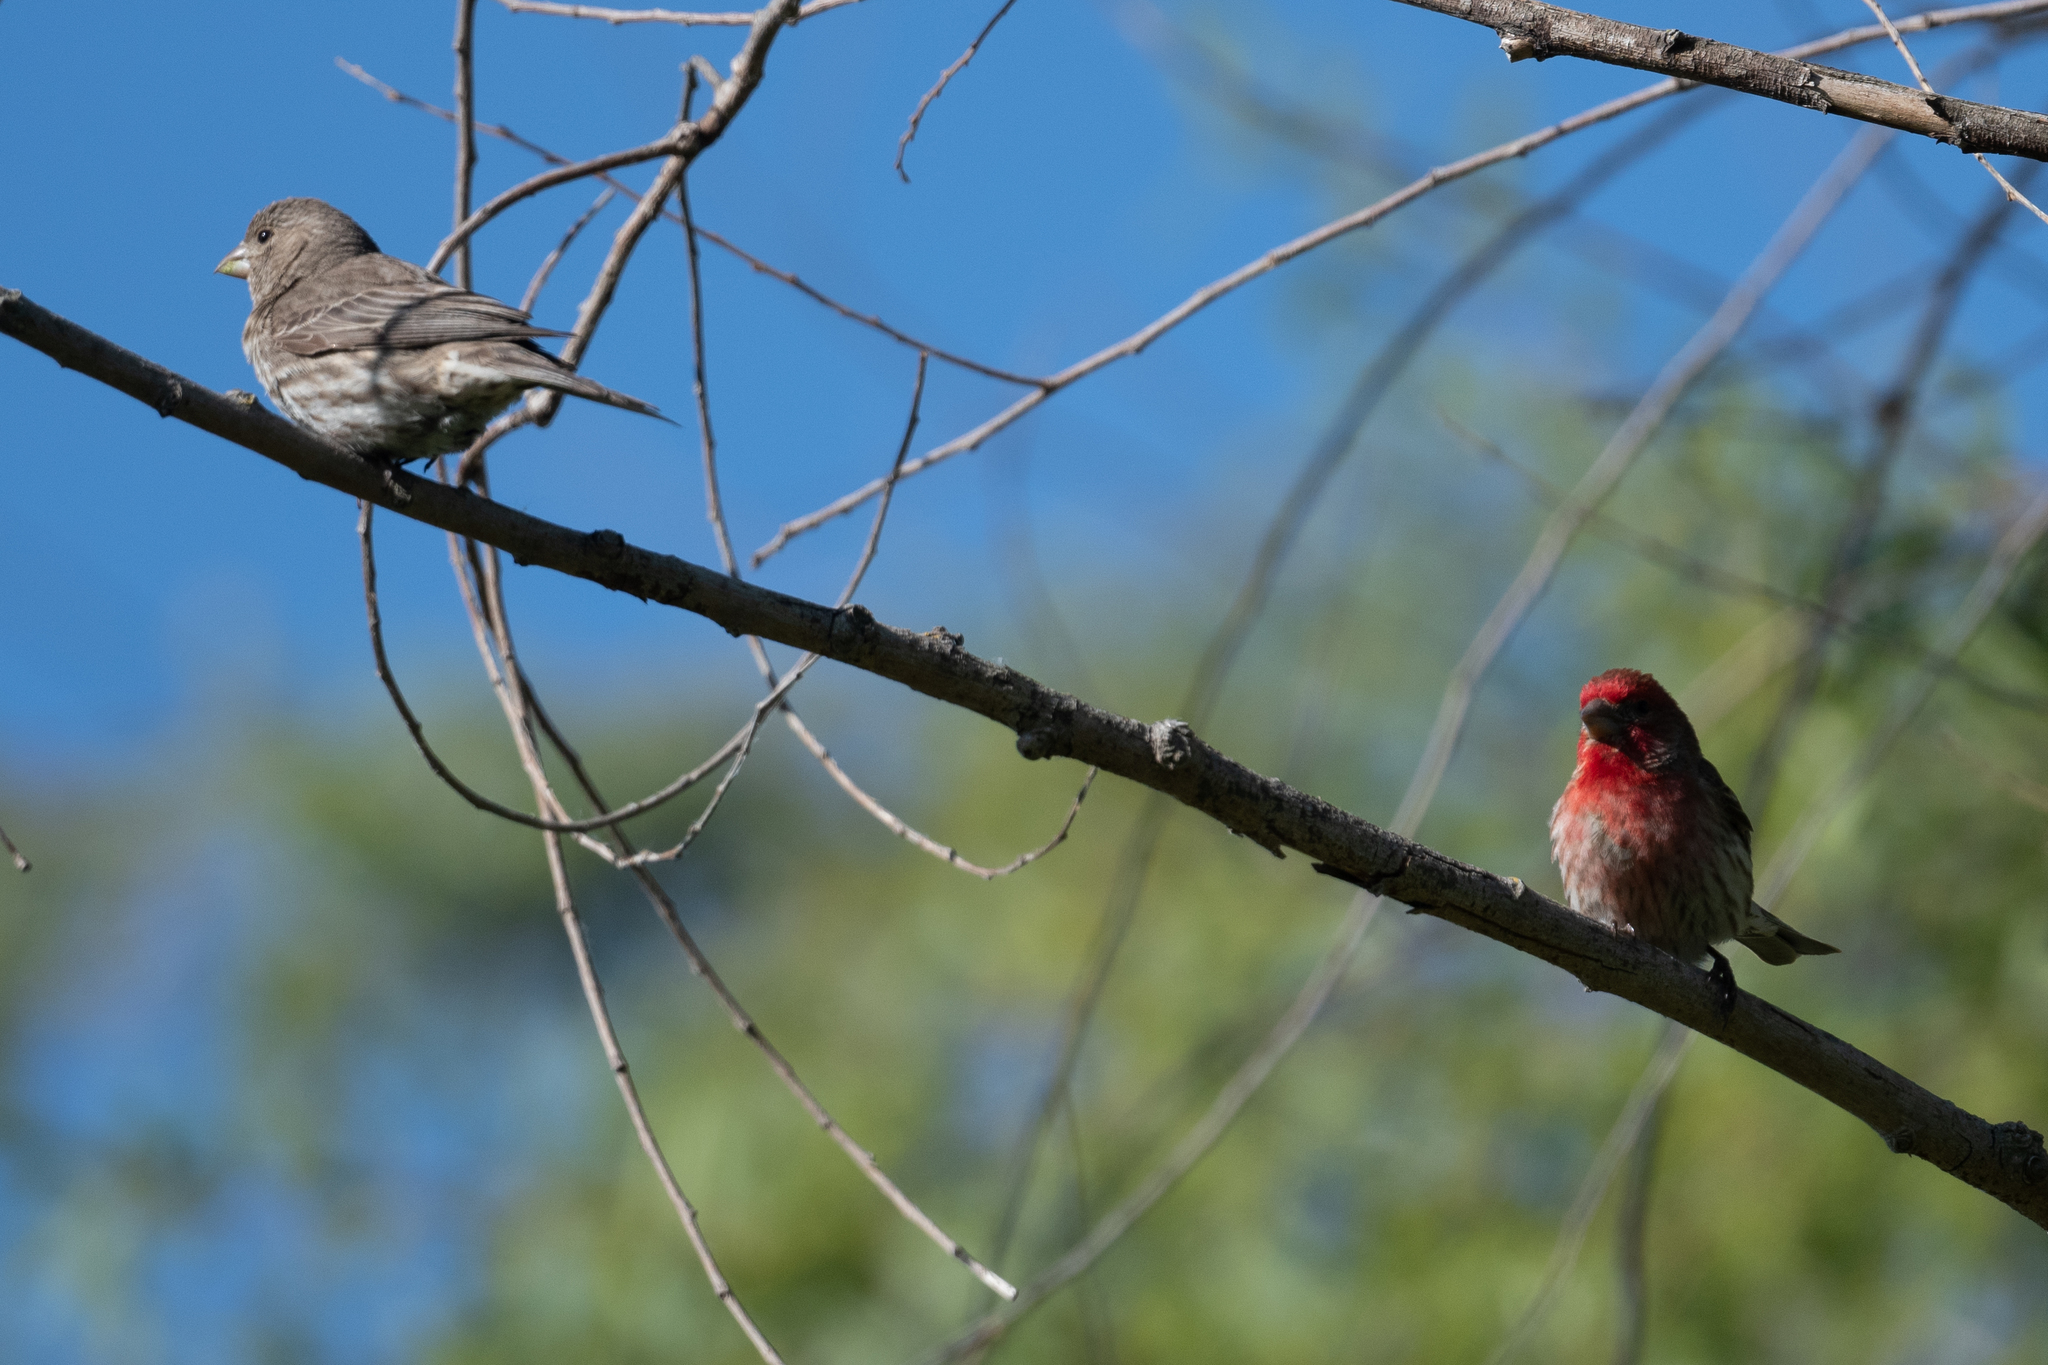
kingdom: Animalia
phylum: Chordata
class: Aves
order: Passeriformes
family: Fringillidae
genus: Haemorhous
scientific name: Haemorhous mexicanus
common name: House finch
